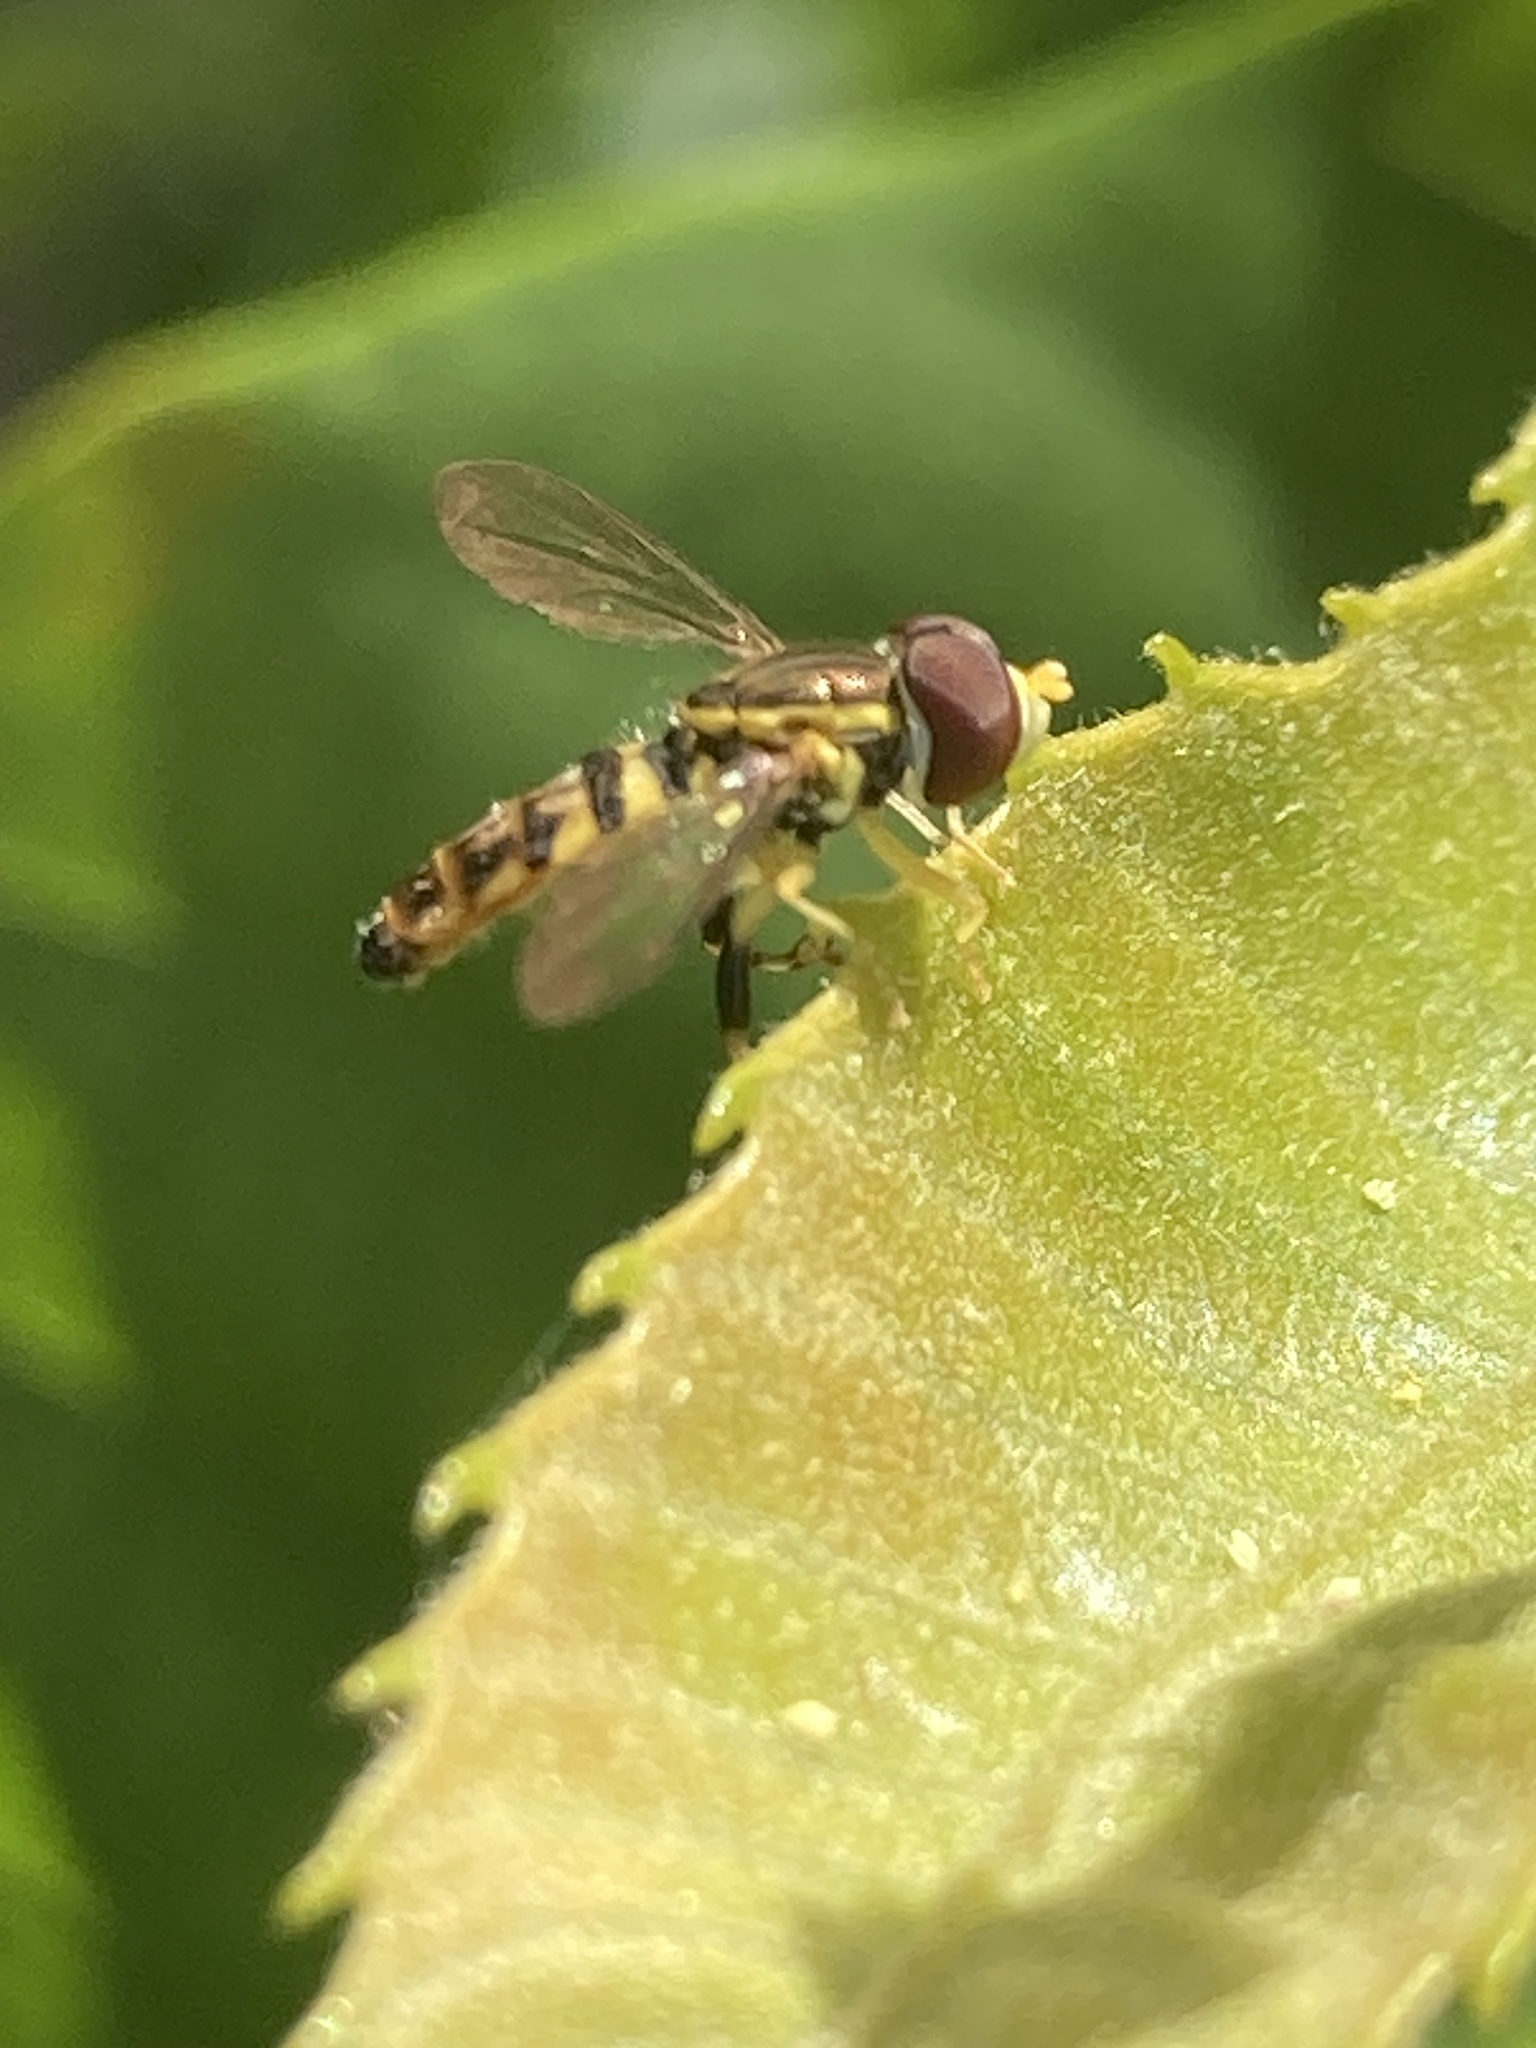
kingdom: Animalia
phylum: Arthropoda
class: Insecta
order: Diptera
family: Syrphidae
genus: Toxomerus
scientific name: Toxomerus geminatus
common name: Eastern calligrapher
